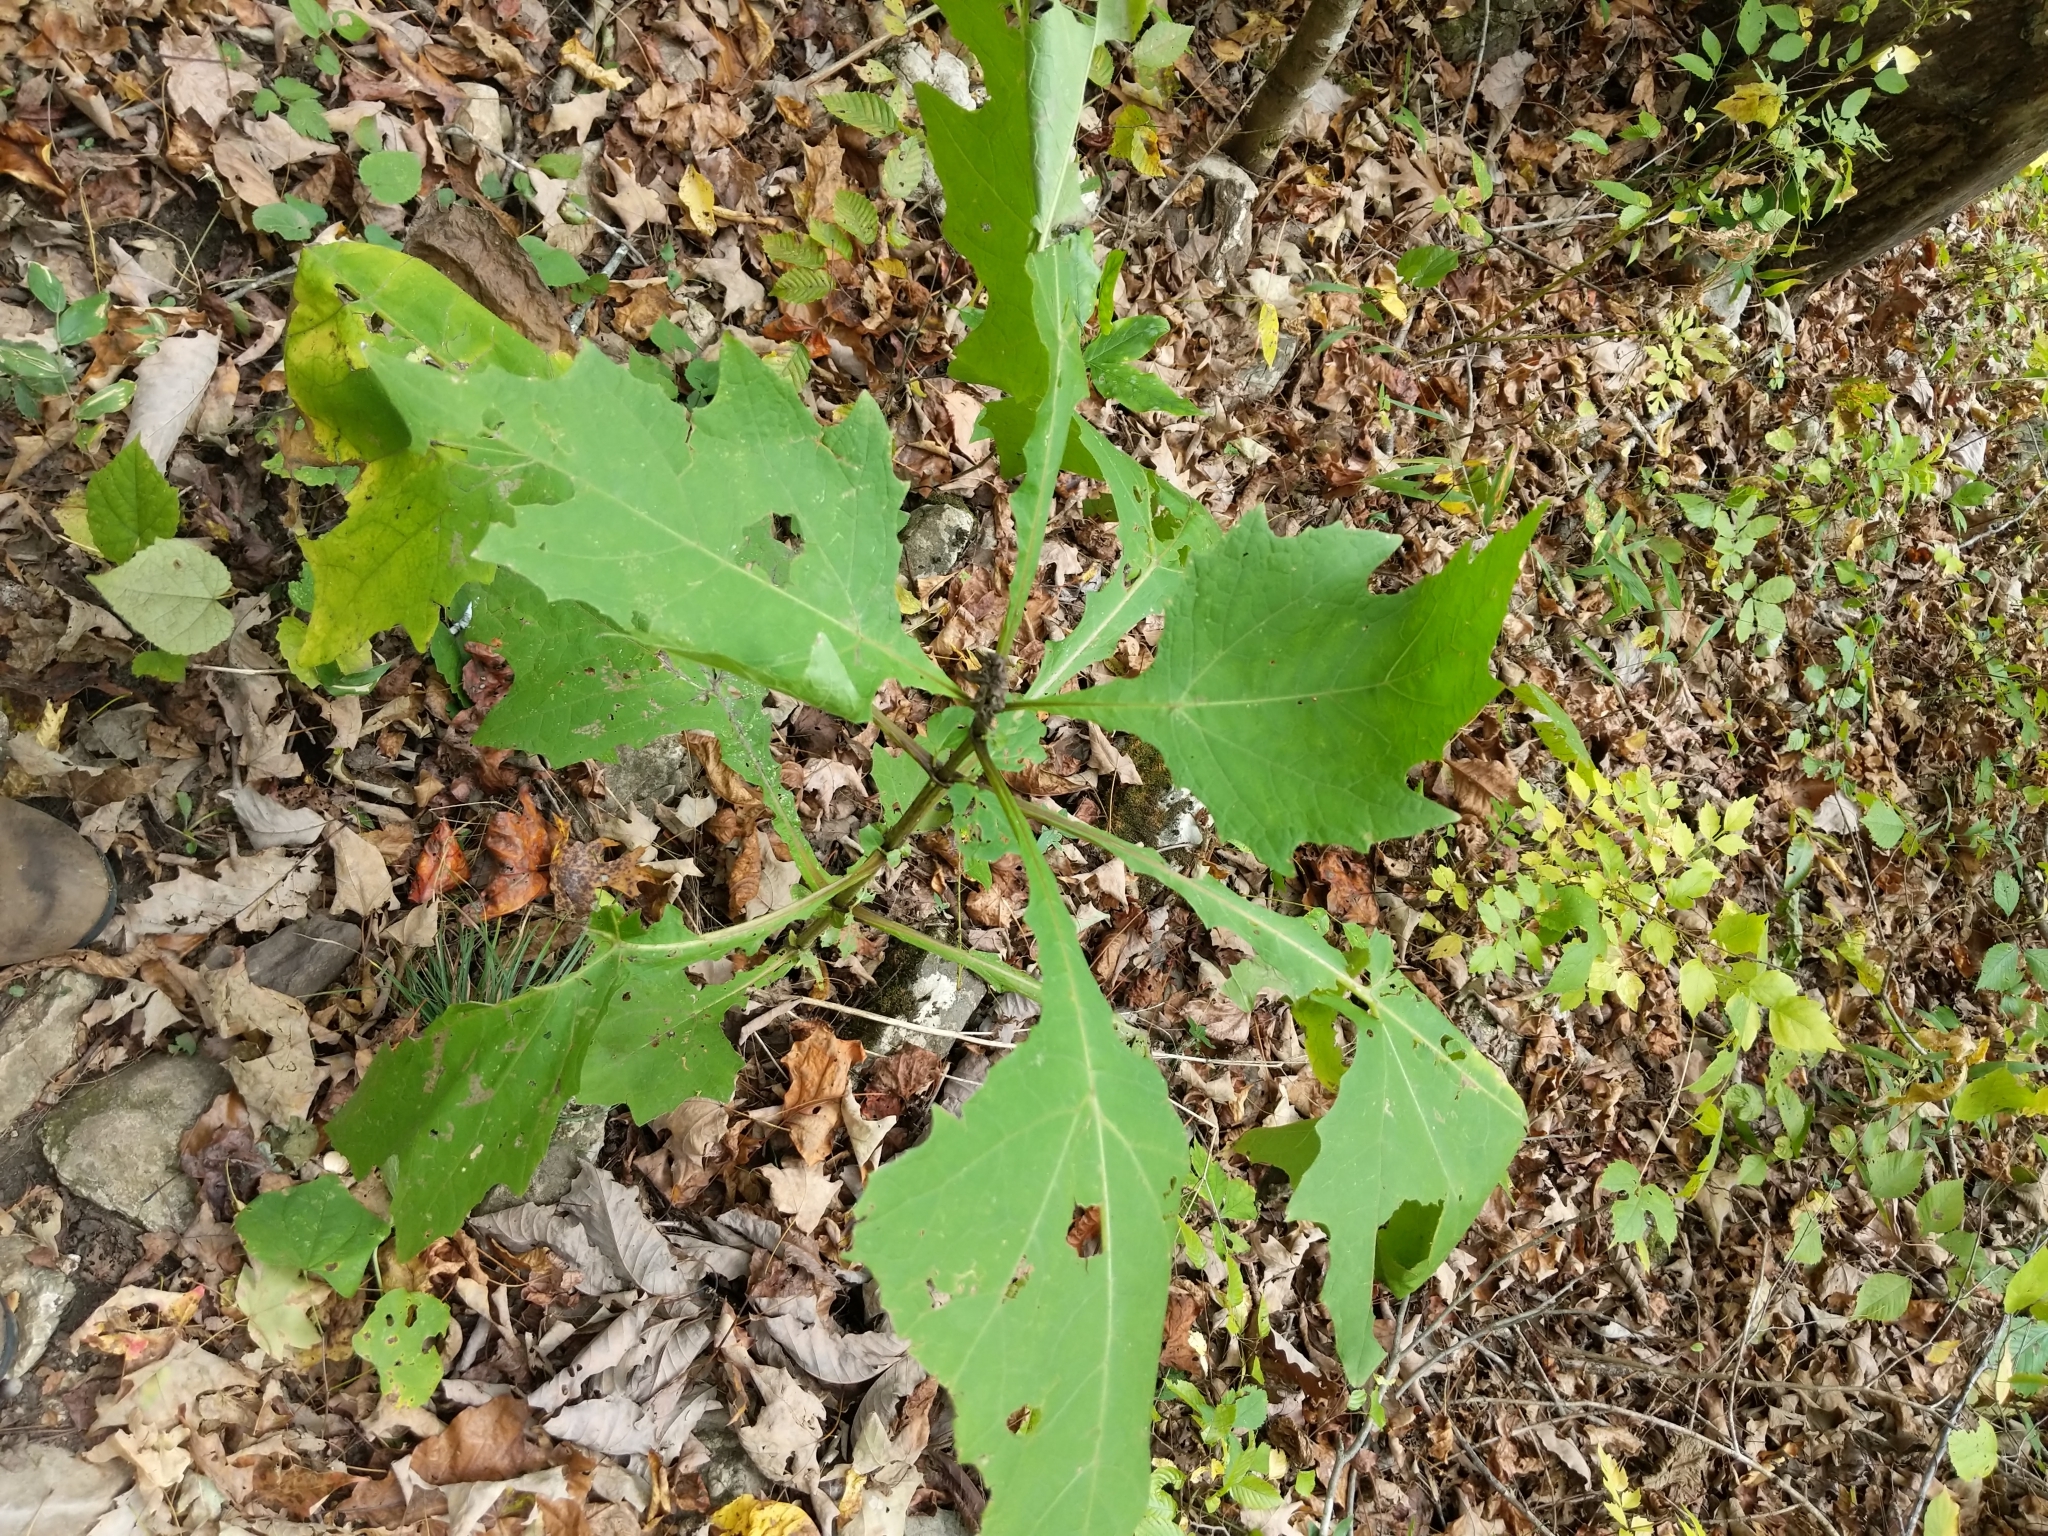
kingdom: Plantae
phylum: Tracheophyta
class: Magnoliopsida
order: Asterales
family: Asteraceae
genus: Smallanthus
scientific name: Smallanthus uvedalia
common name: Bear's-foot
